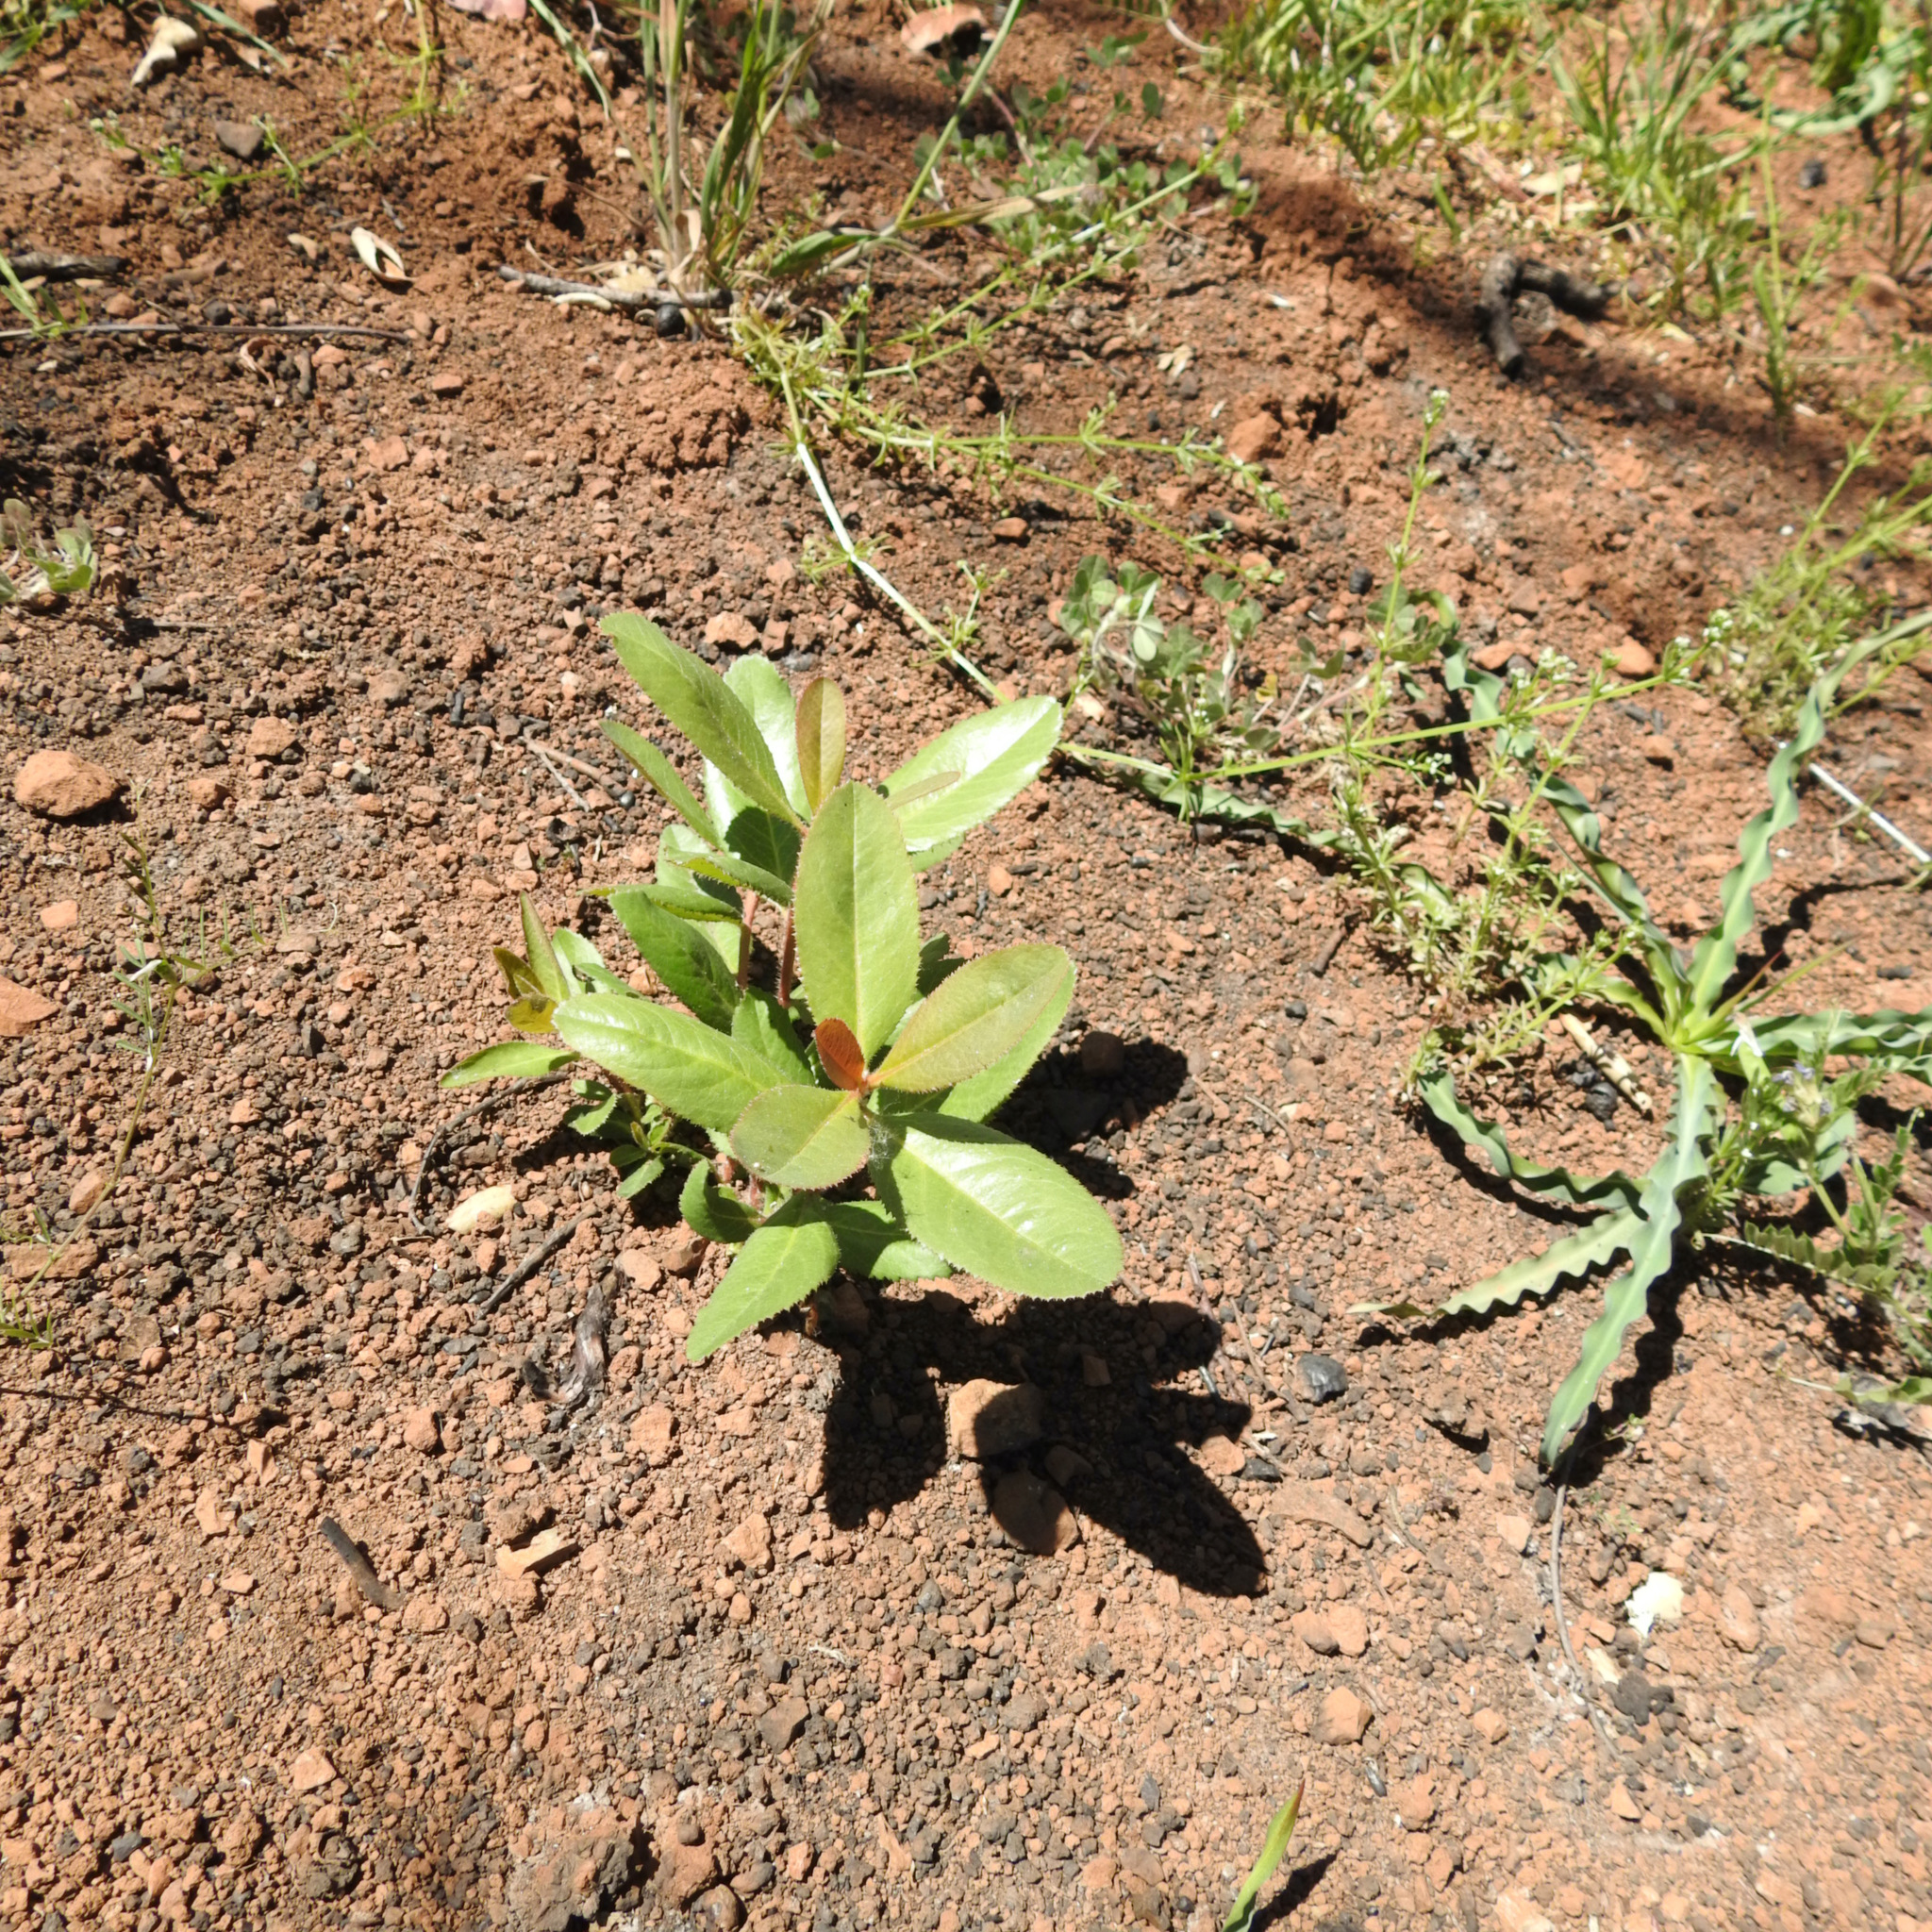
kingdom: Plantae
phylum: Tracheophyta
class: Magnoliopsida
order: Ericales
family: Ericaceae
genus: Arbutus
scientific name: Arbutus menziesii
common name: Pacific madrone
